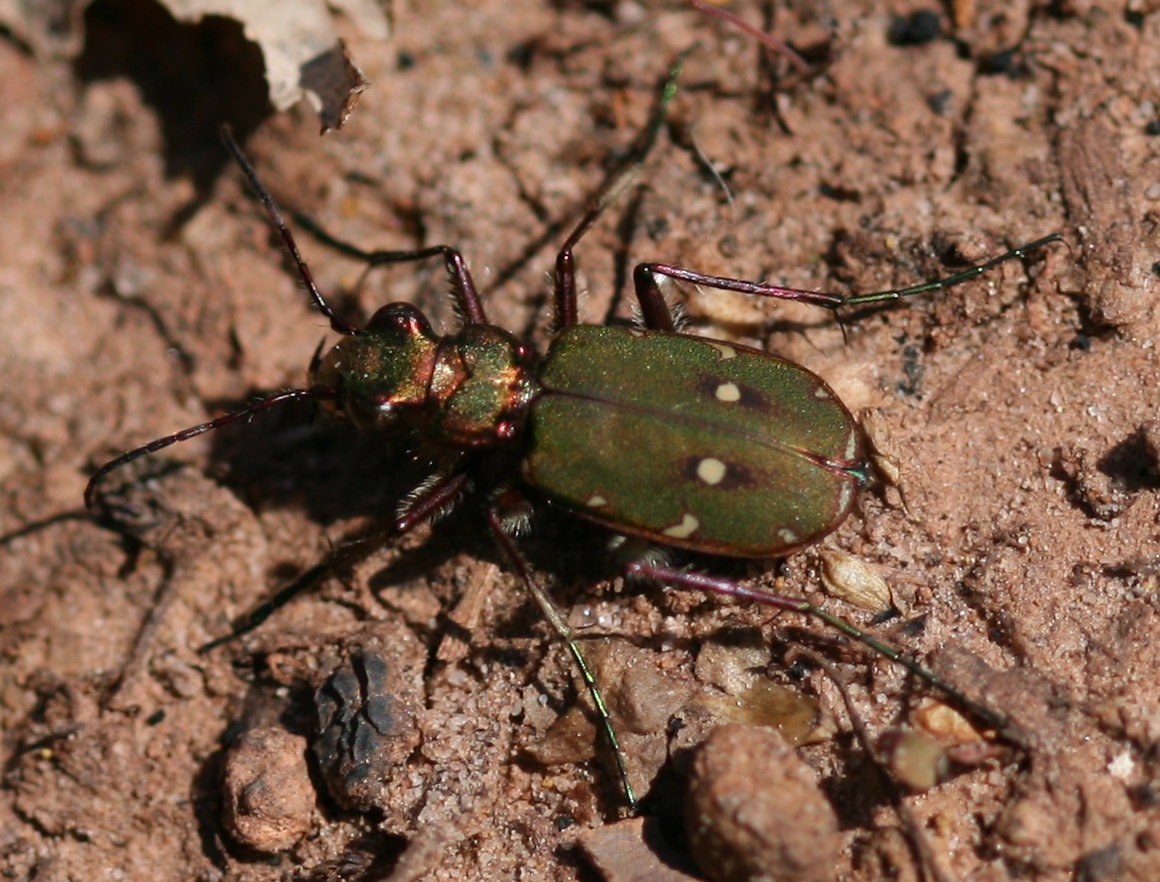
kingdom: Animalia
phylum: Arthropoda
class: Insecta
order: Coleoptera
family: Carabidae
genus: Cicindela
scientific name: Cicindela campestris
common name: Common tiger beetle
